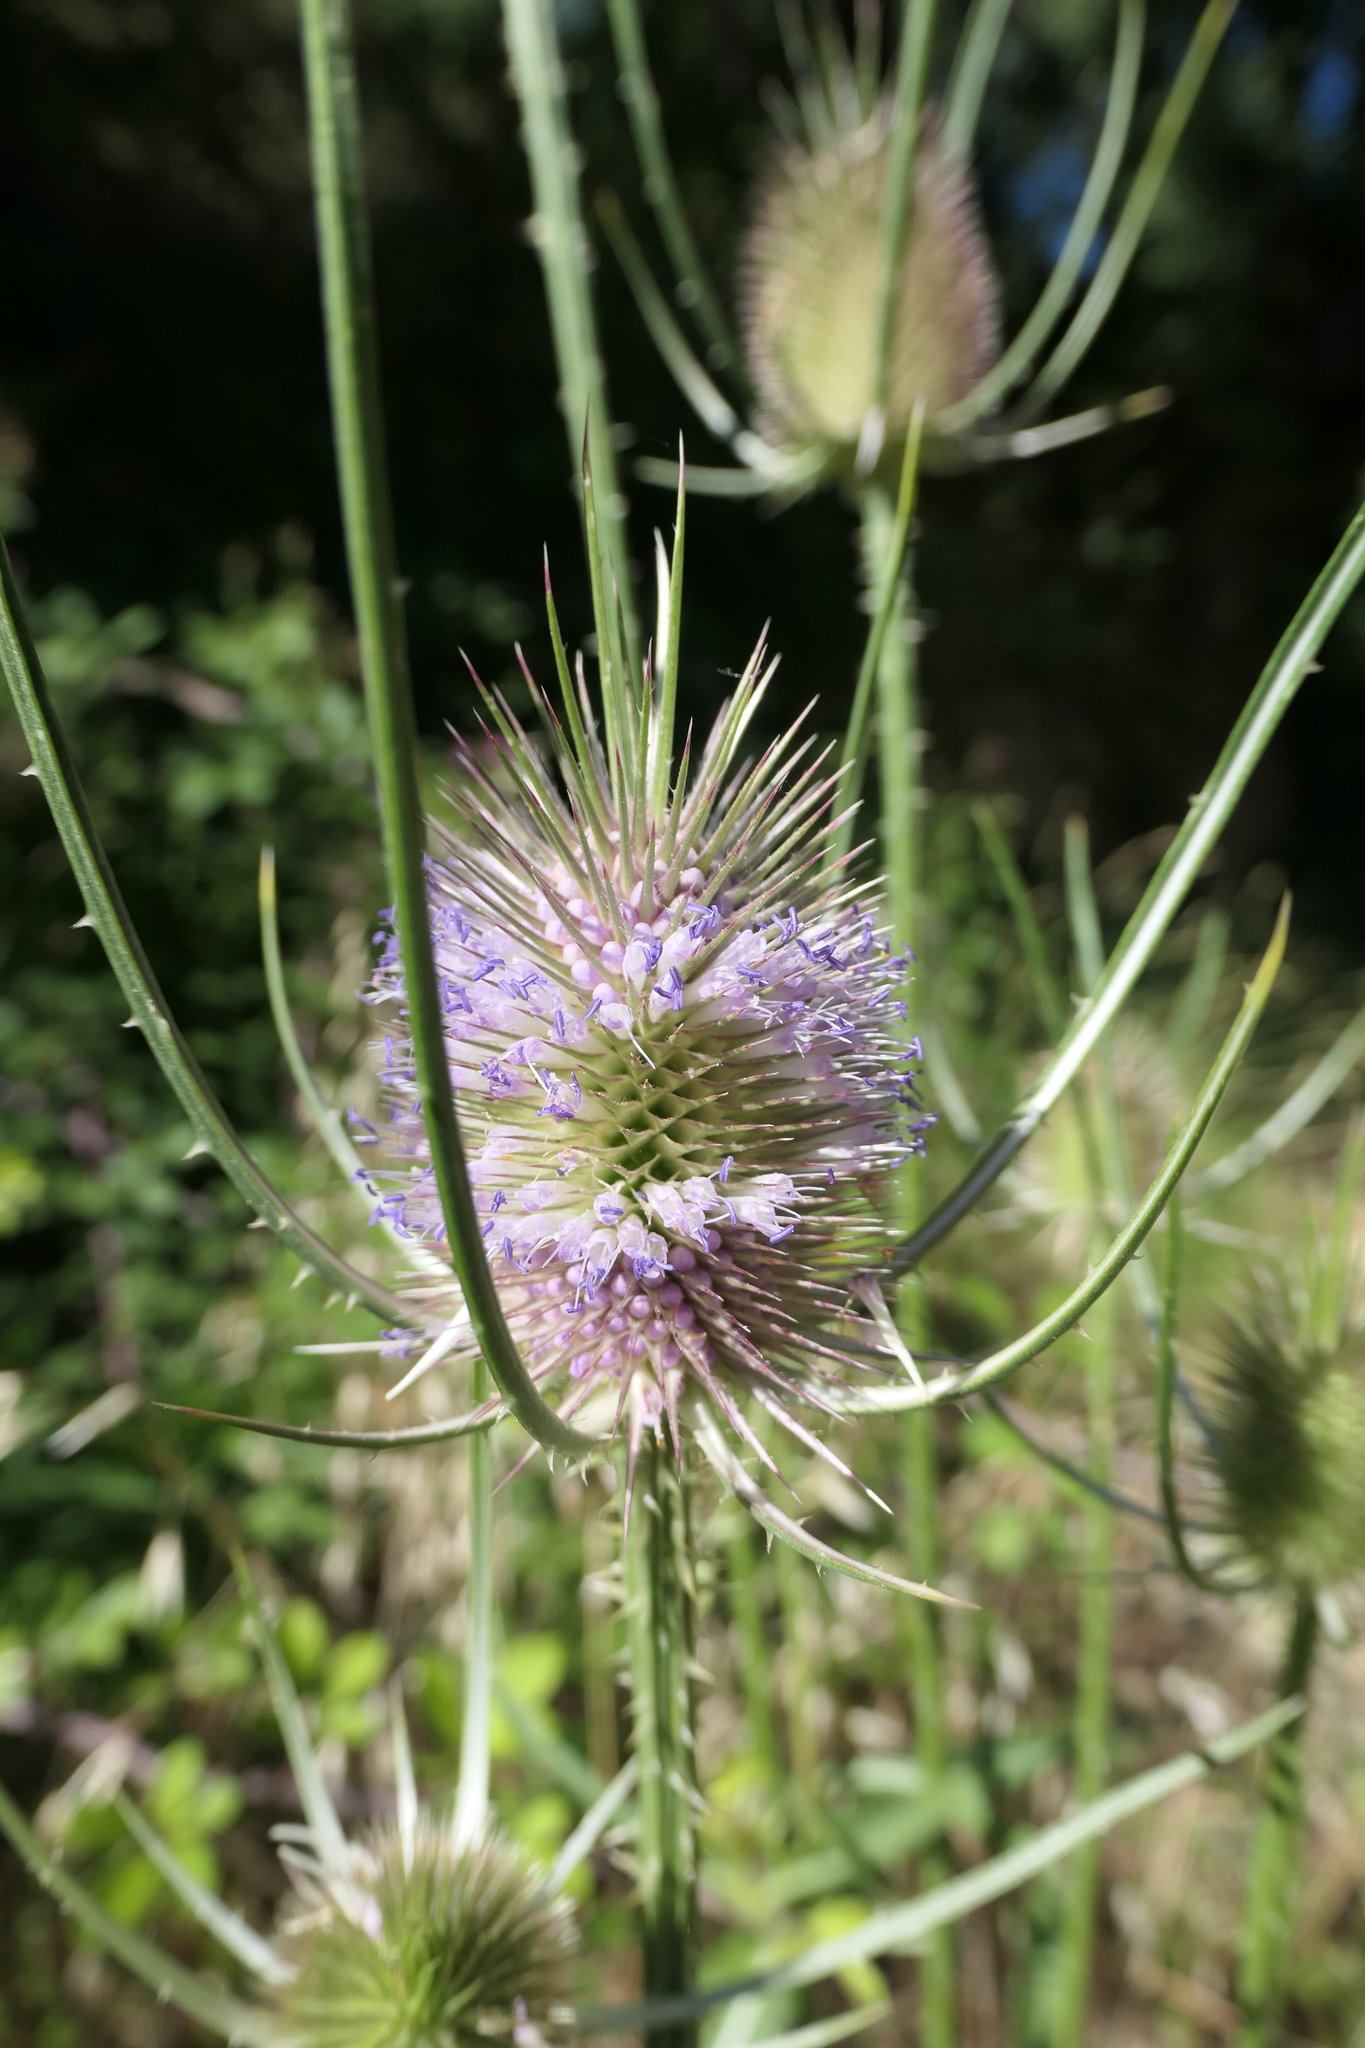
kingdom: Plantae
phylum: Tracheophyta
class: Magnoliopsida
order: Dipsacales
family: Caprifoliaceae
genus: Dipsacus
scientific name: Dipsacus fullonum
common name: Teasel
